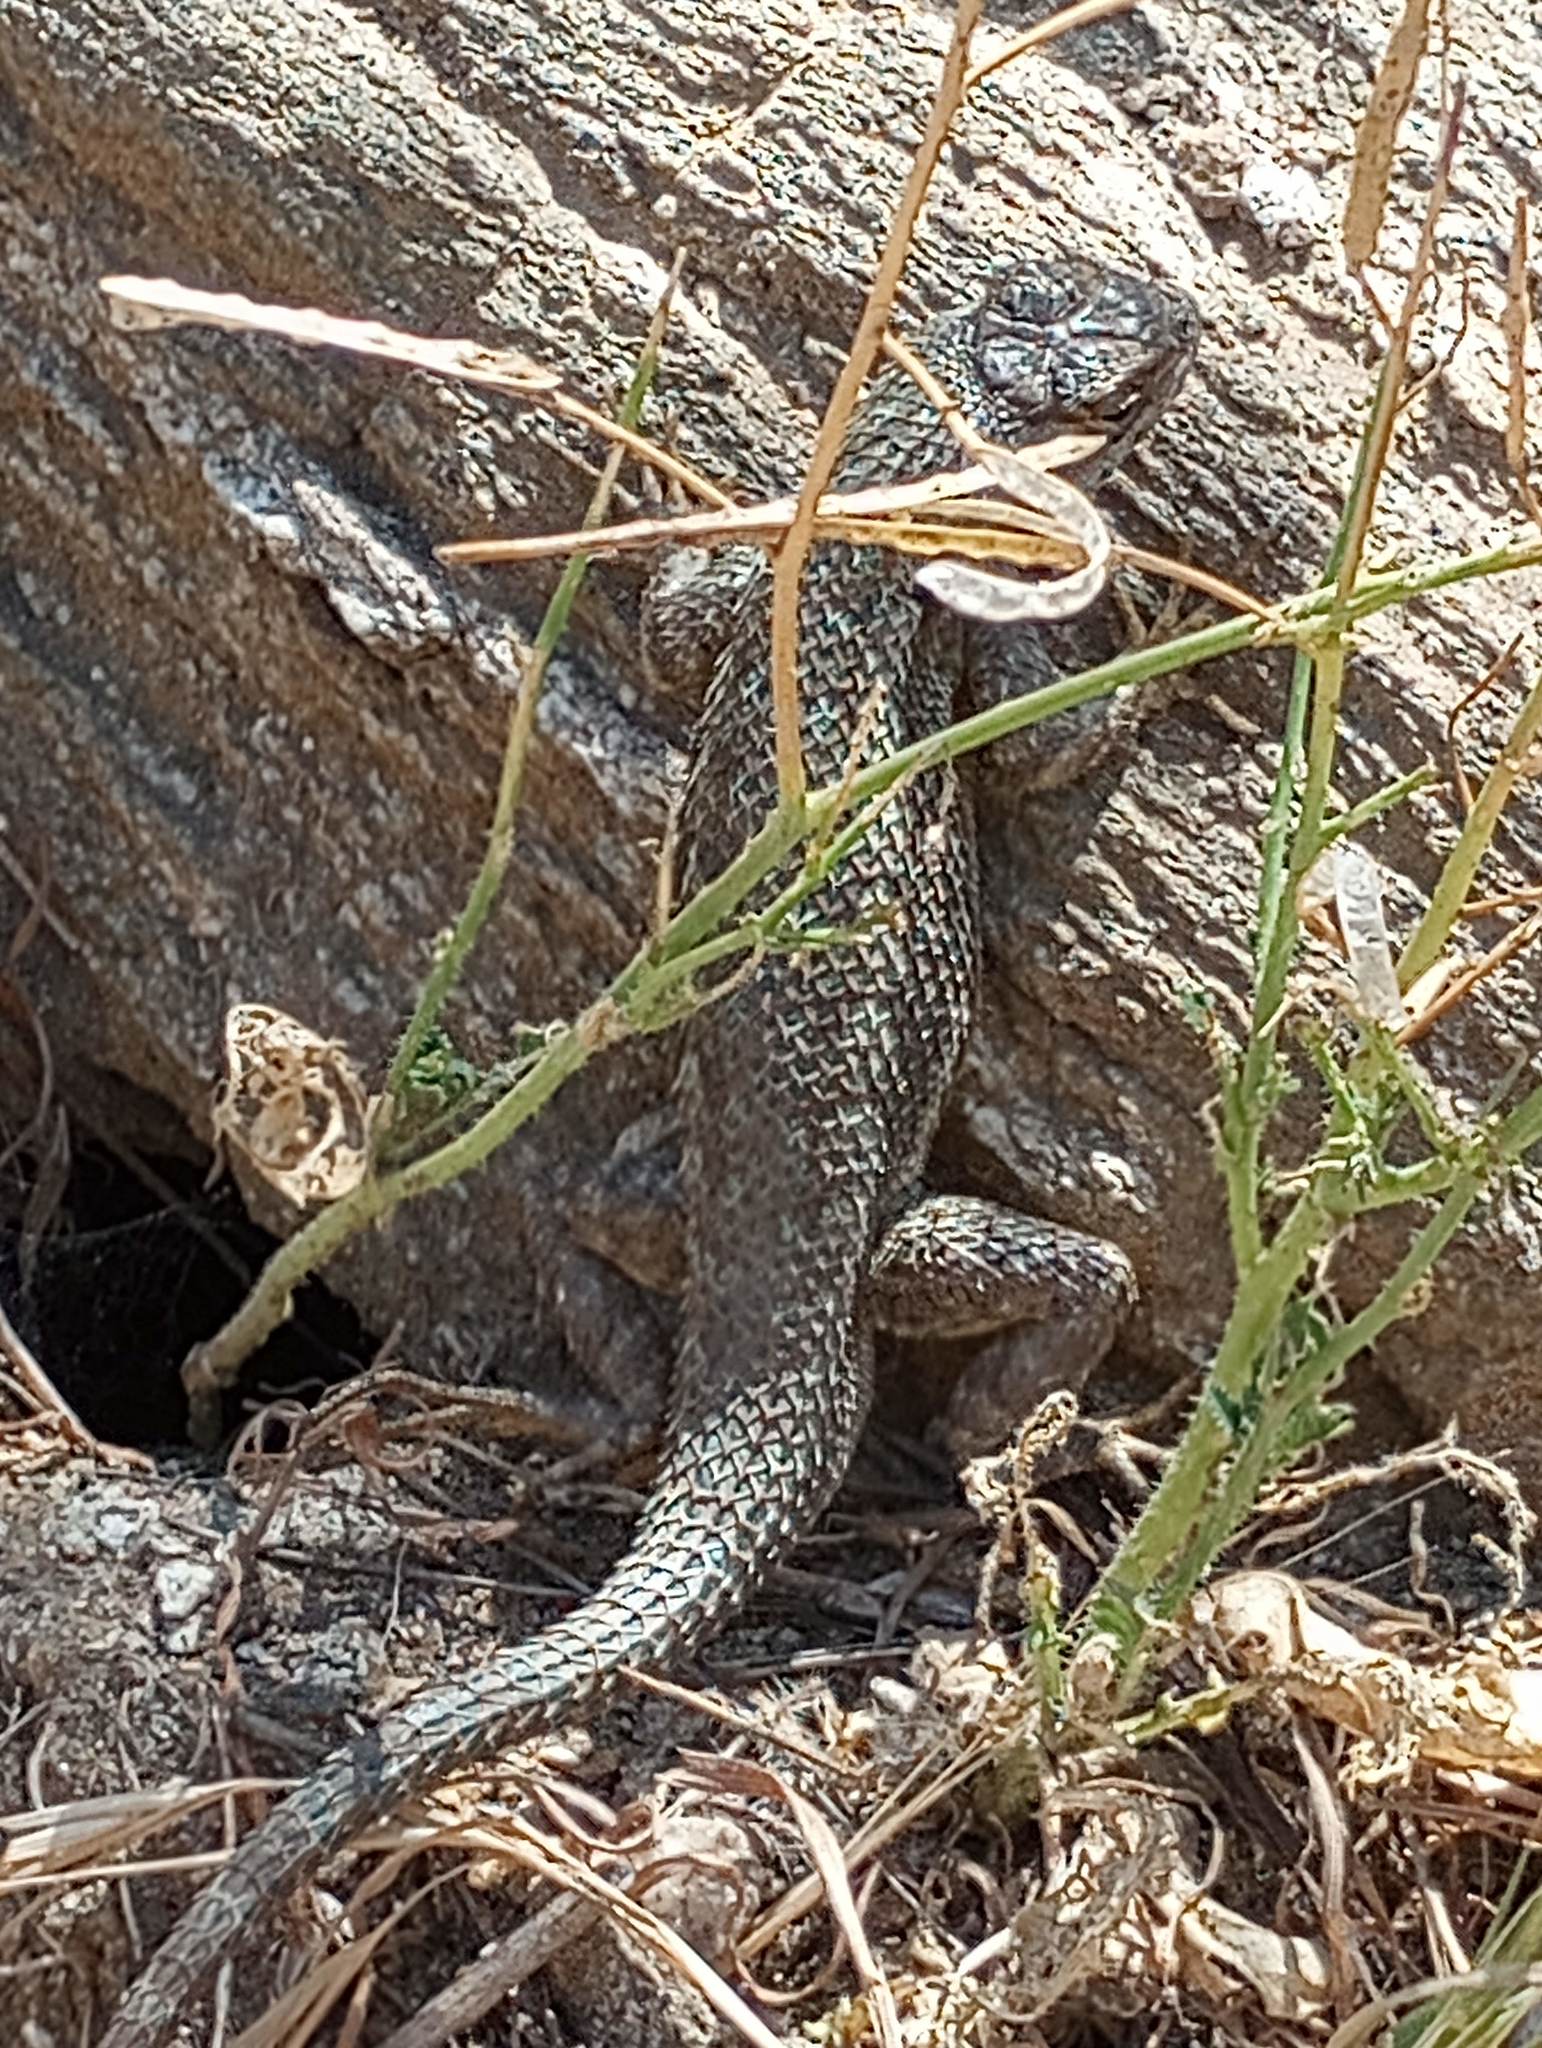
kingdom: Animalia
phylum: Chordata
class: Squamata
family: Phrynosomatidae
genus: Sceloporus
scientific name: Sceloporus occidentalis
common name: Western fence lizard
